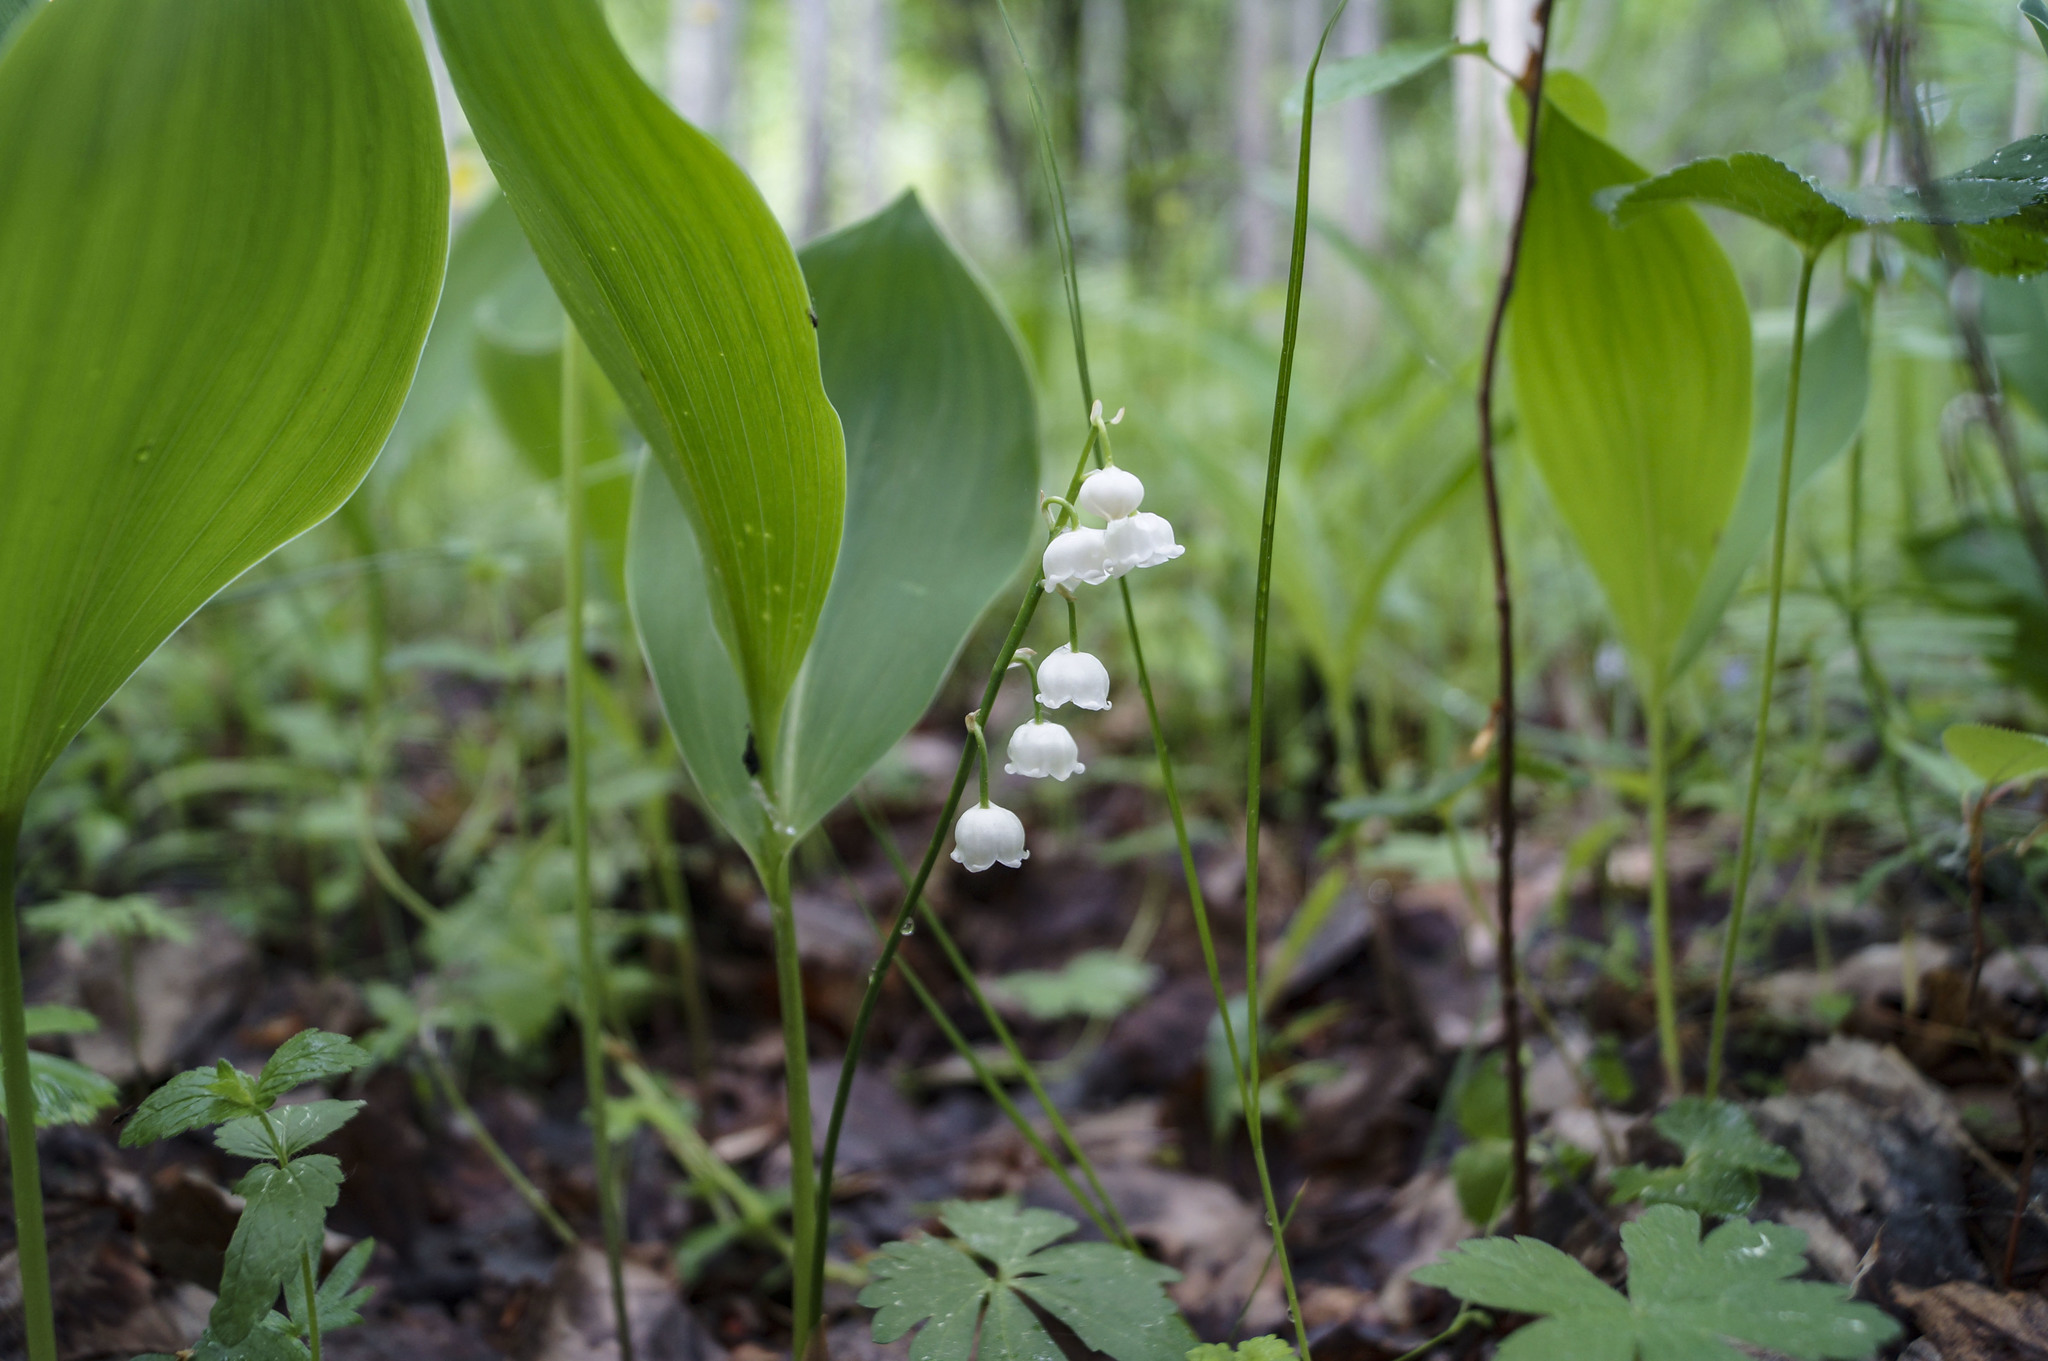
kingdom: Plantae
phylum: Tracheophyta
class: Liliopsida
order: Asparagales
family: Asparagaceae
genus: Convallaria
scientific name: Convallaria majalis
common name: Lily-of-the-valley
